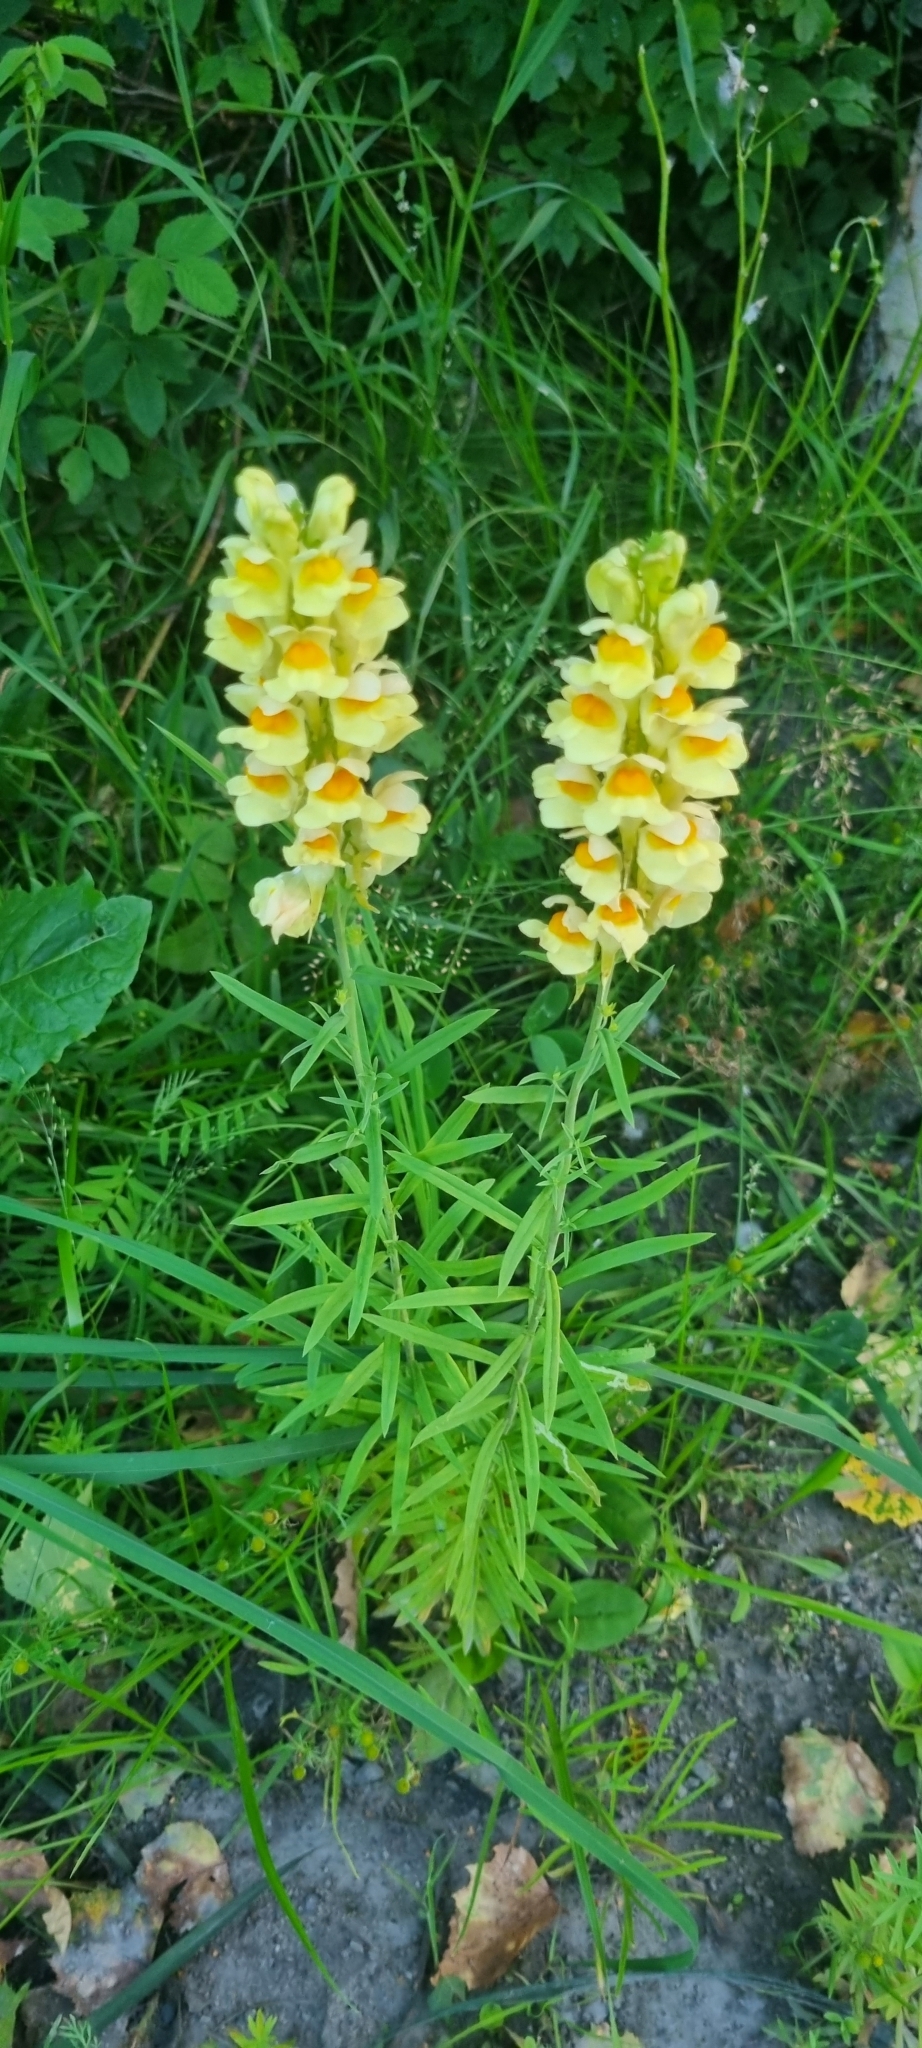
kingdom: Plantae
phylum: Tracheophyta
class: Magnoliopsida
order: Lamiales
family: Plantaginaceae
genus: Linaria
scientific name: Linaria vulgaris
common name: Butter and eggs
